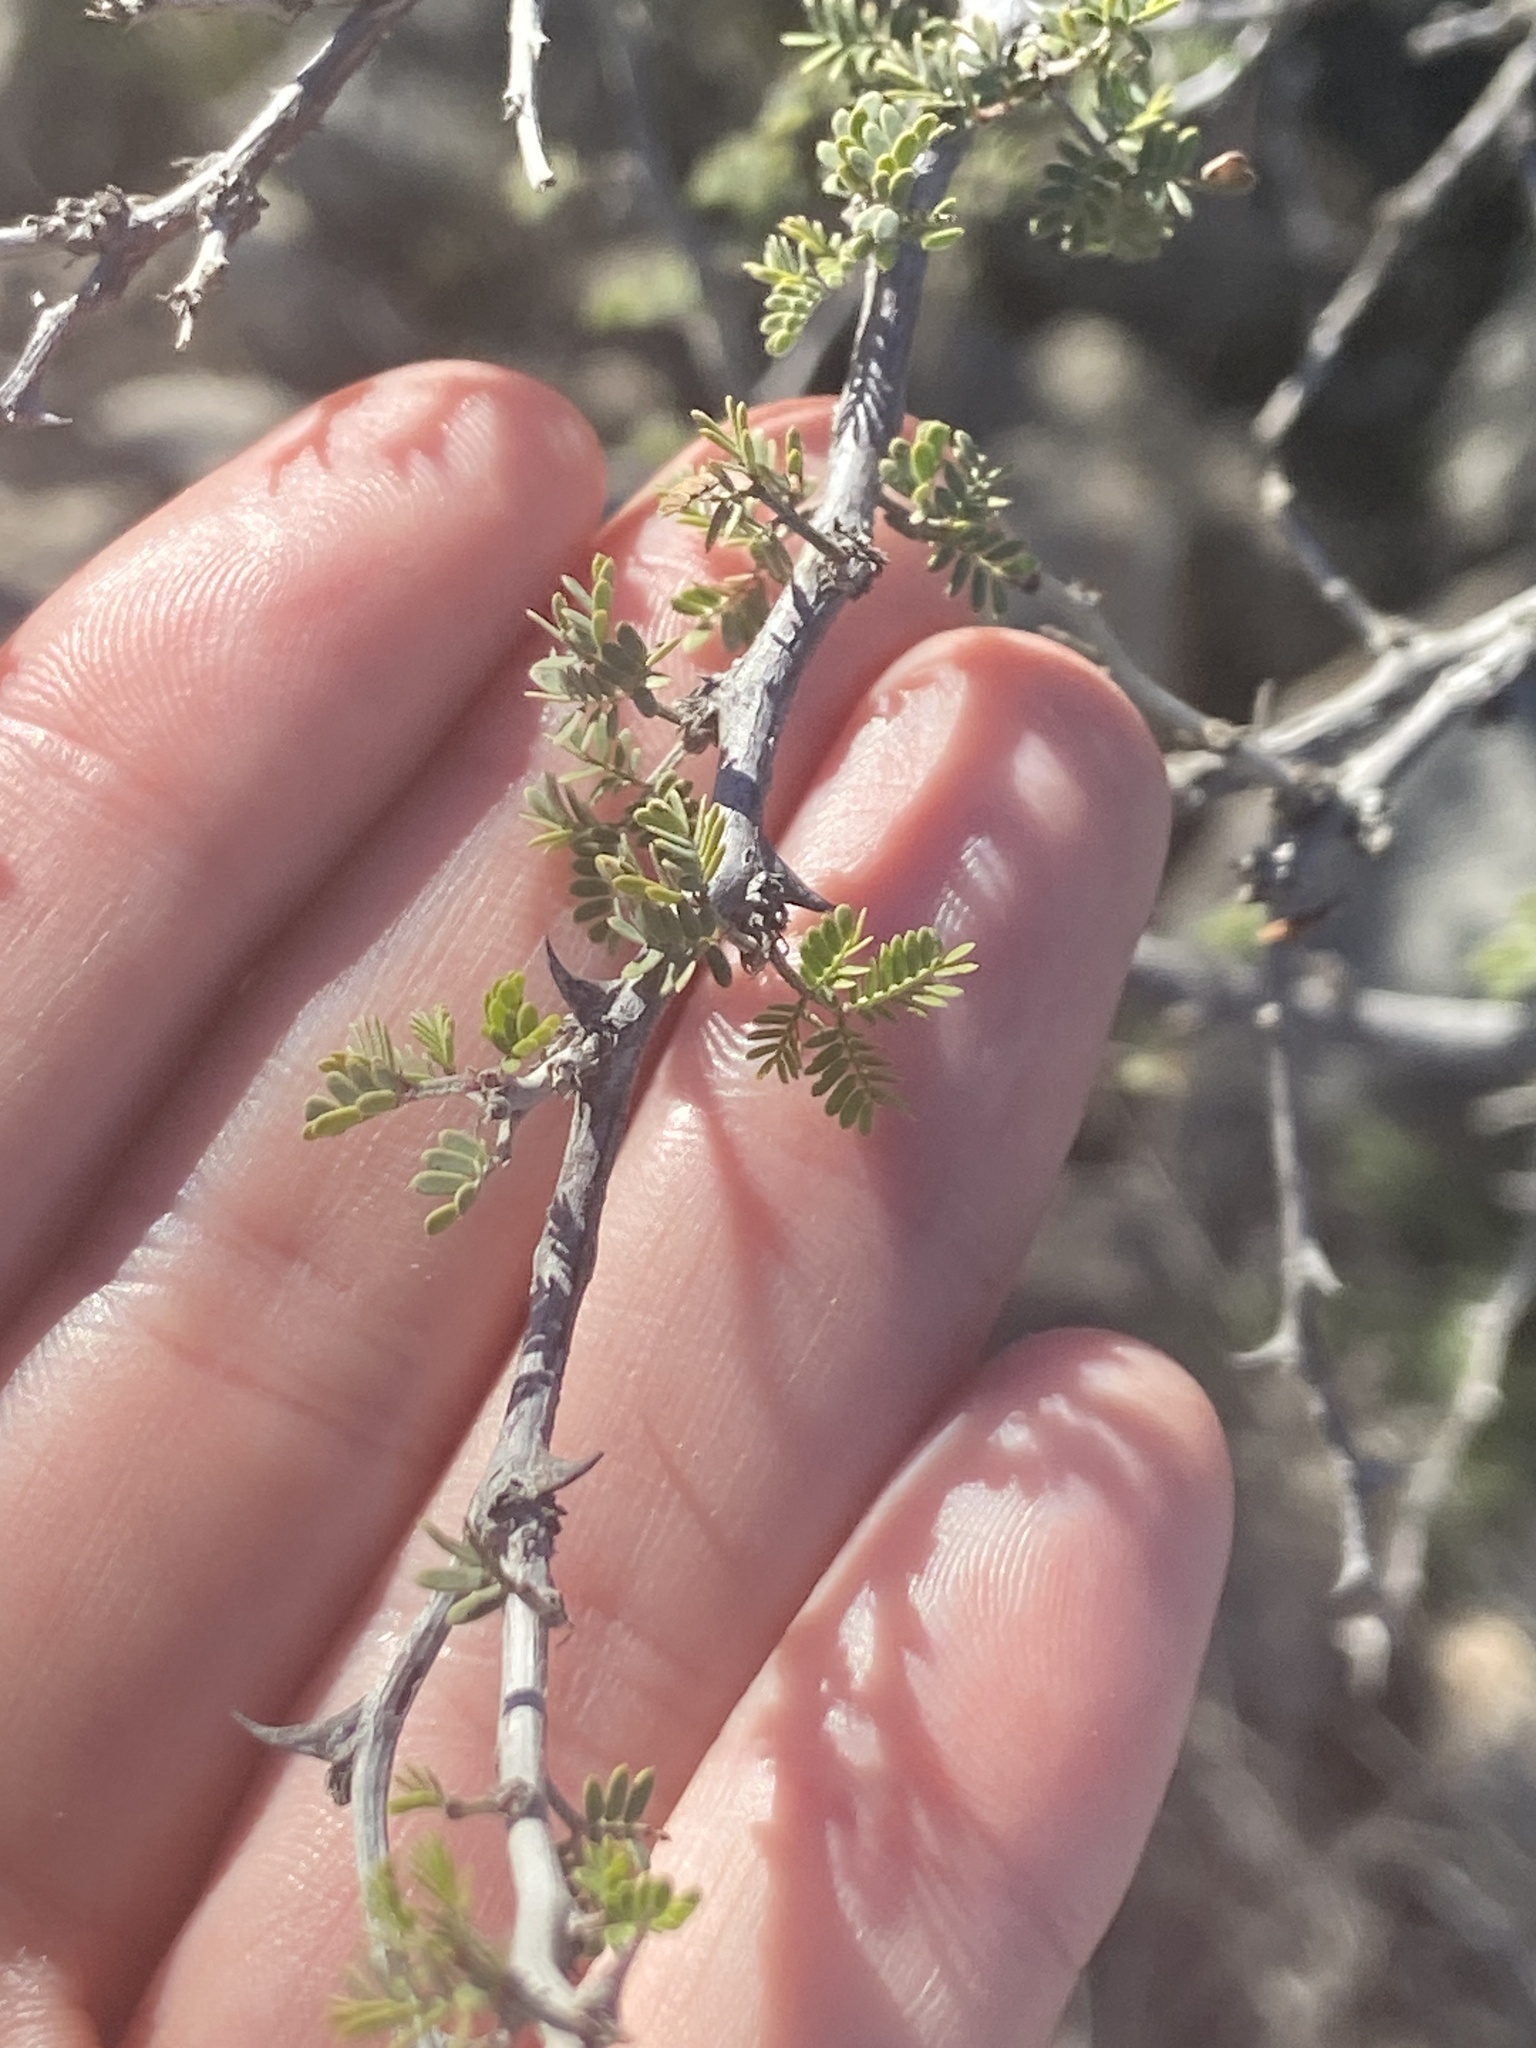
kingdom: Plantae
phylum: Tracheophyta
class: Magnoliopsida
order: Fabales
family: Fabaceae
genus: Mimosa
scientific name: Mimosa texana
